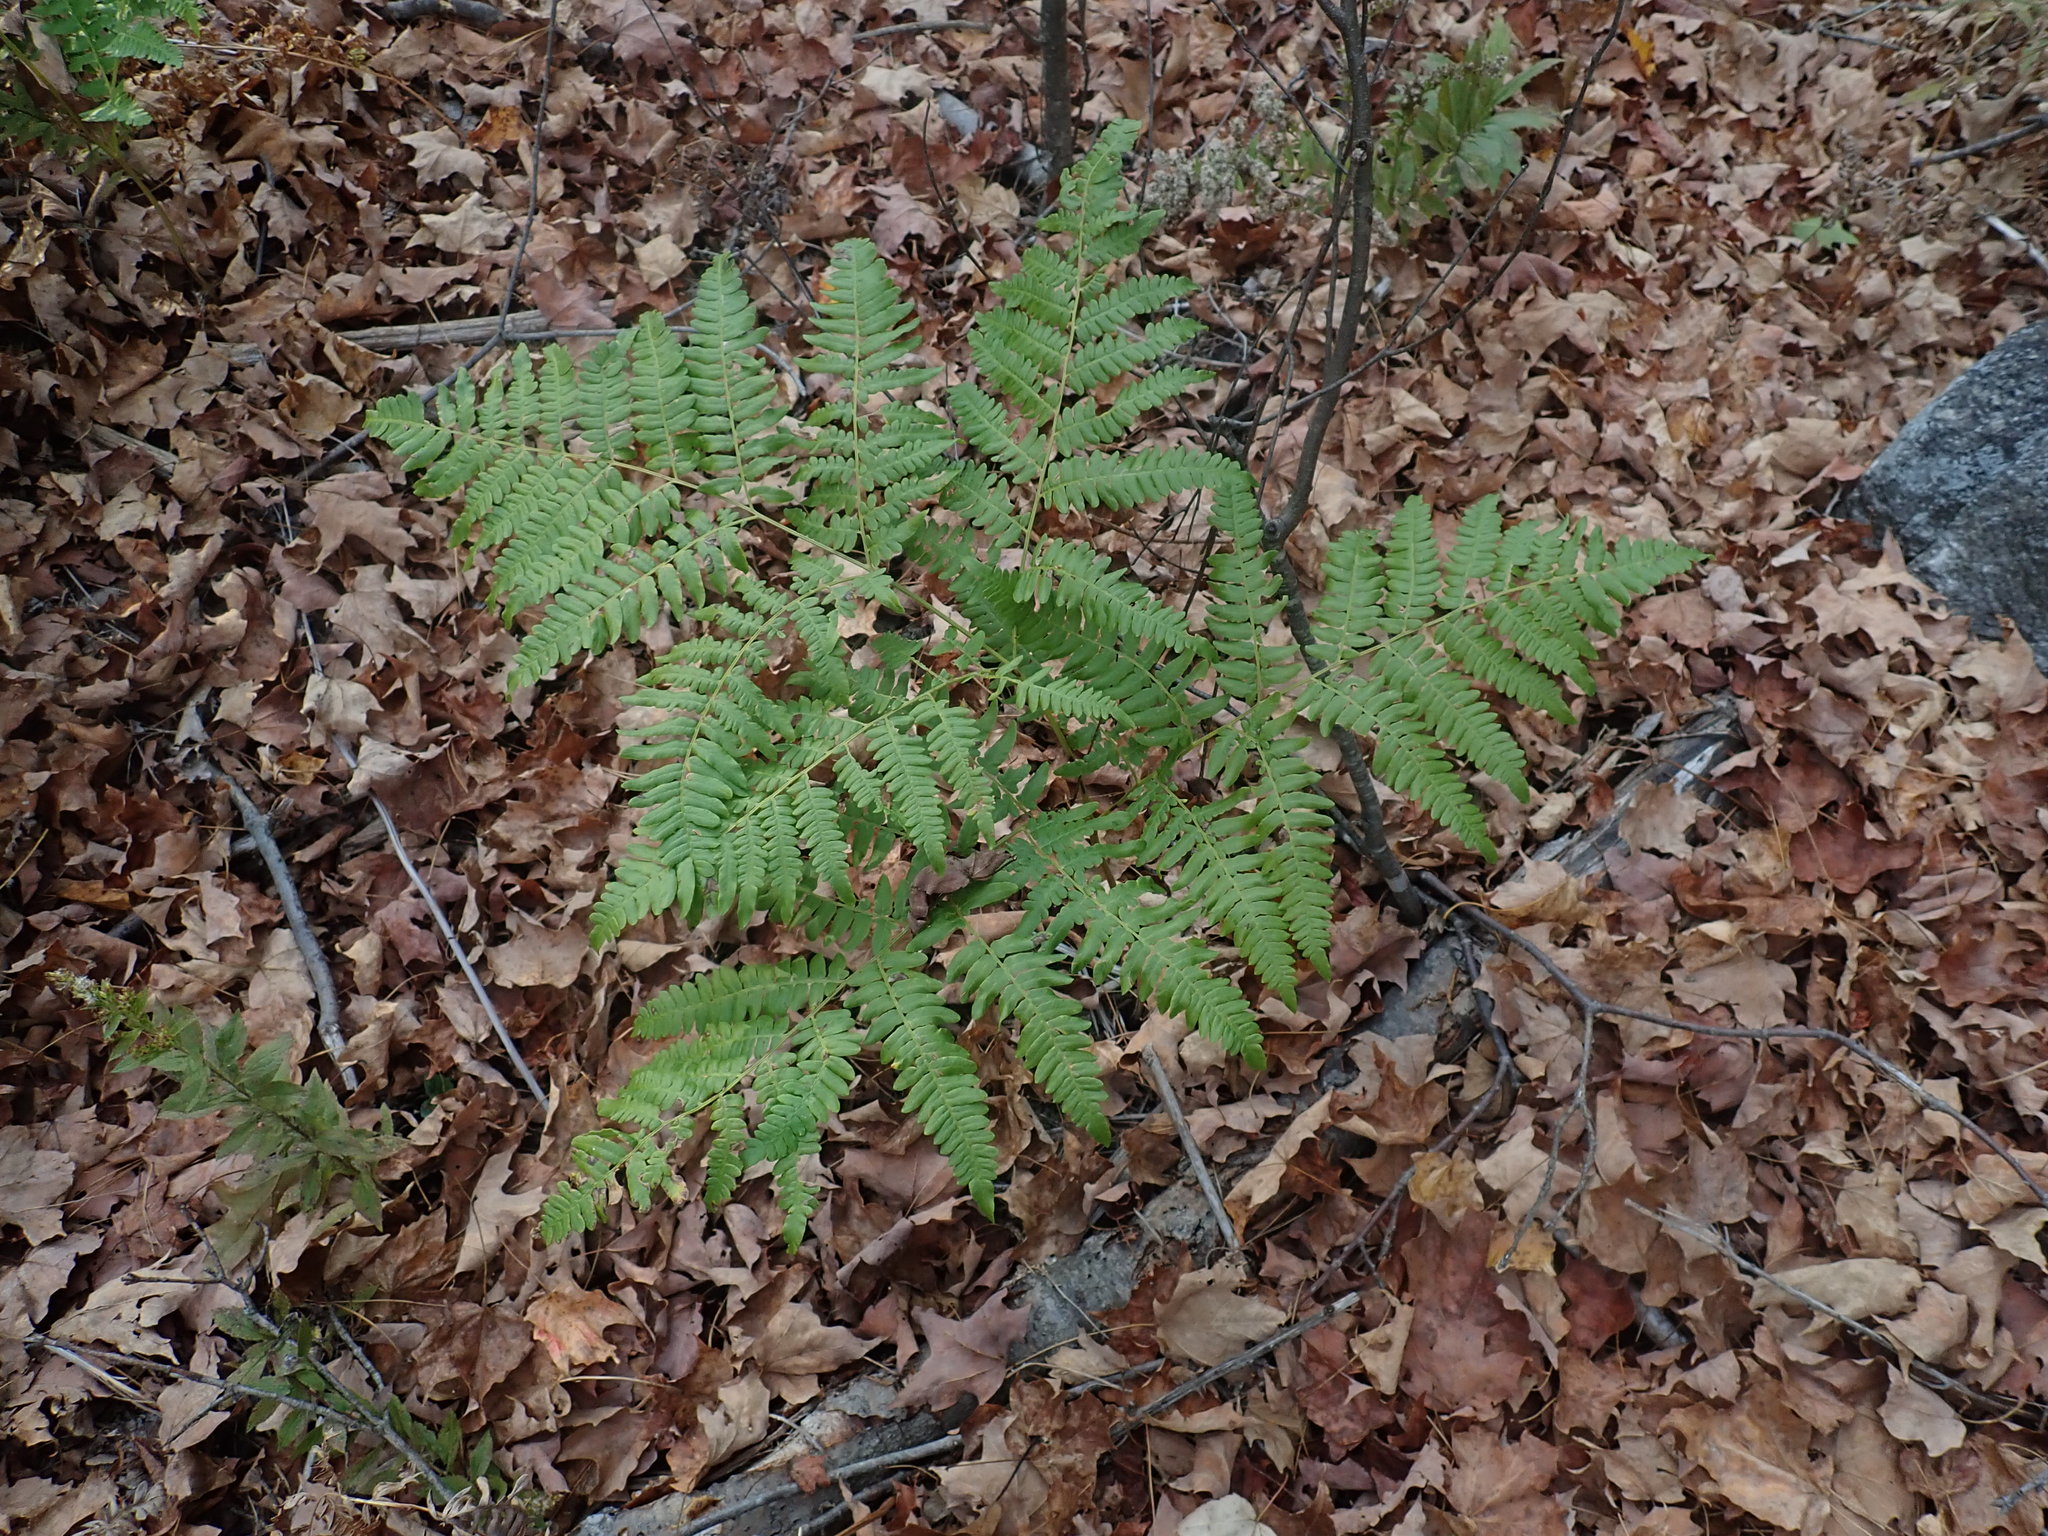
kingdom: Plantae
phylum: Tracheophyta
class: Polypodiopsida
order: Polypodiales
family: Dennstaedtiaceae
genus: Pteridium
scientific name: Pteridium aquilinum
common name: Bracken
